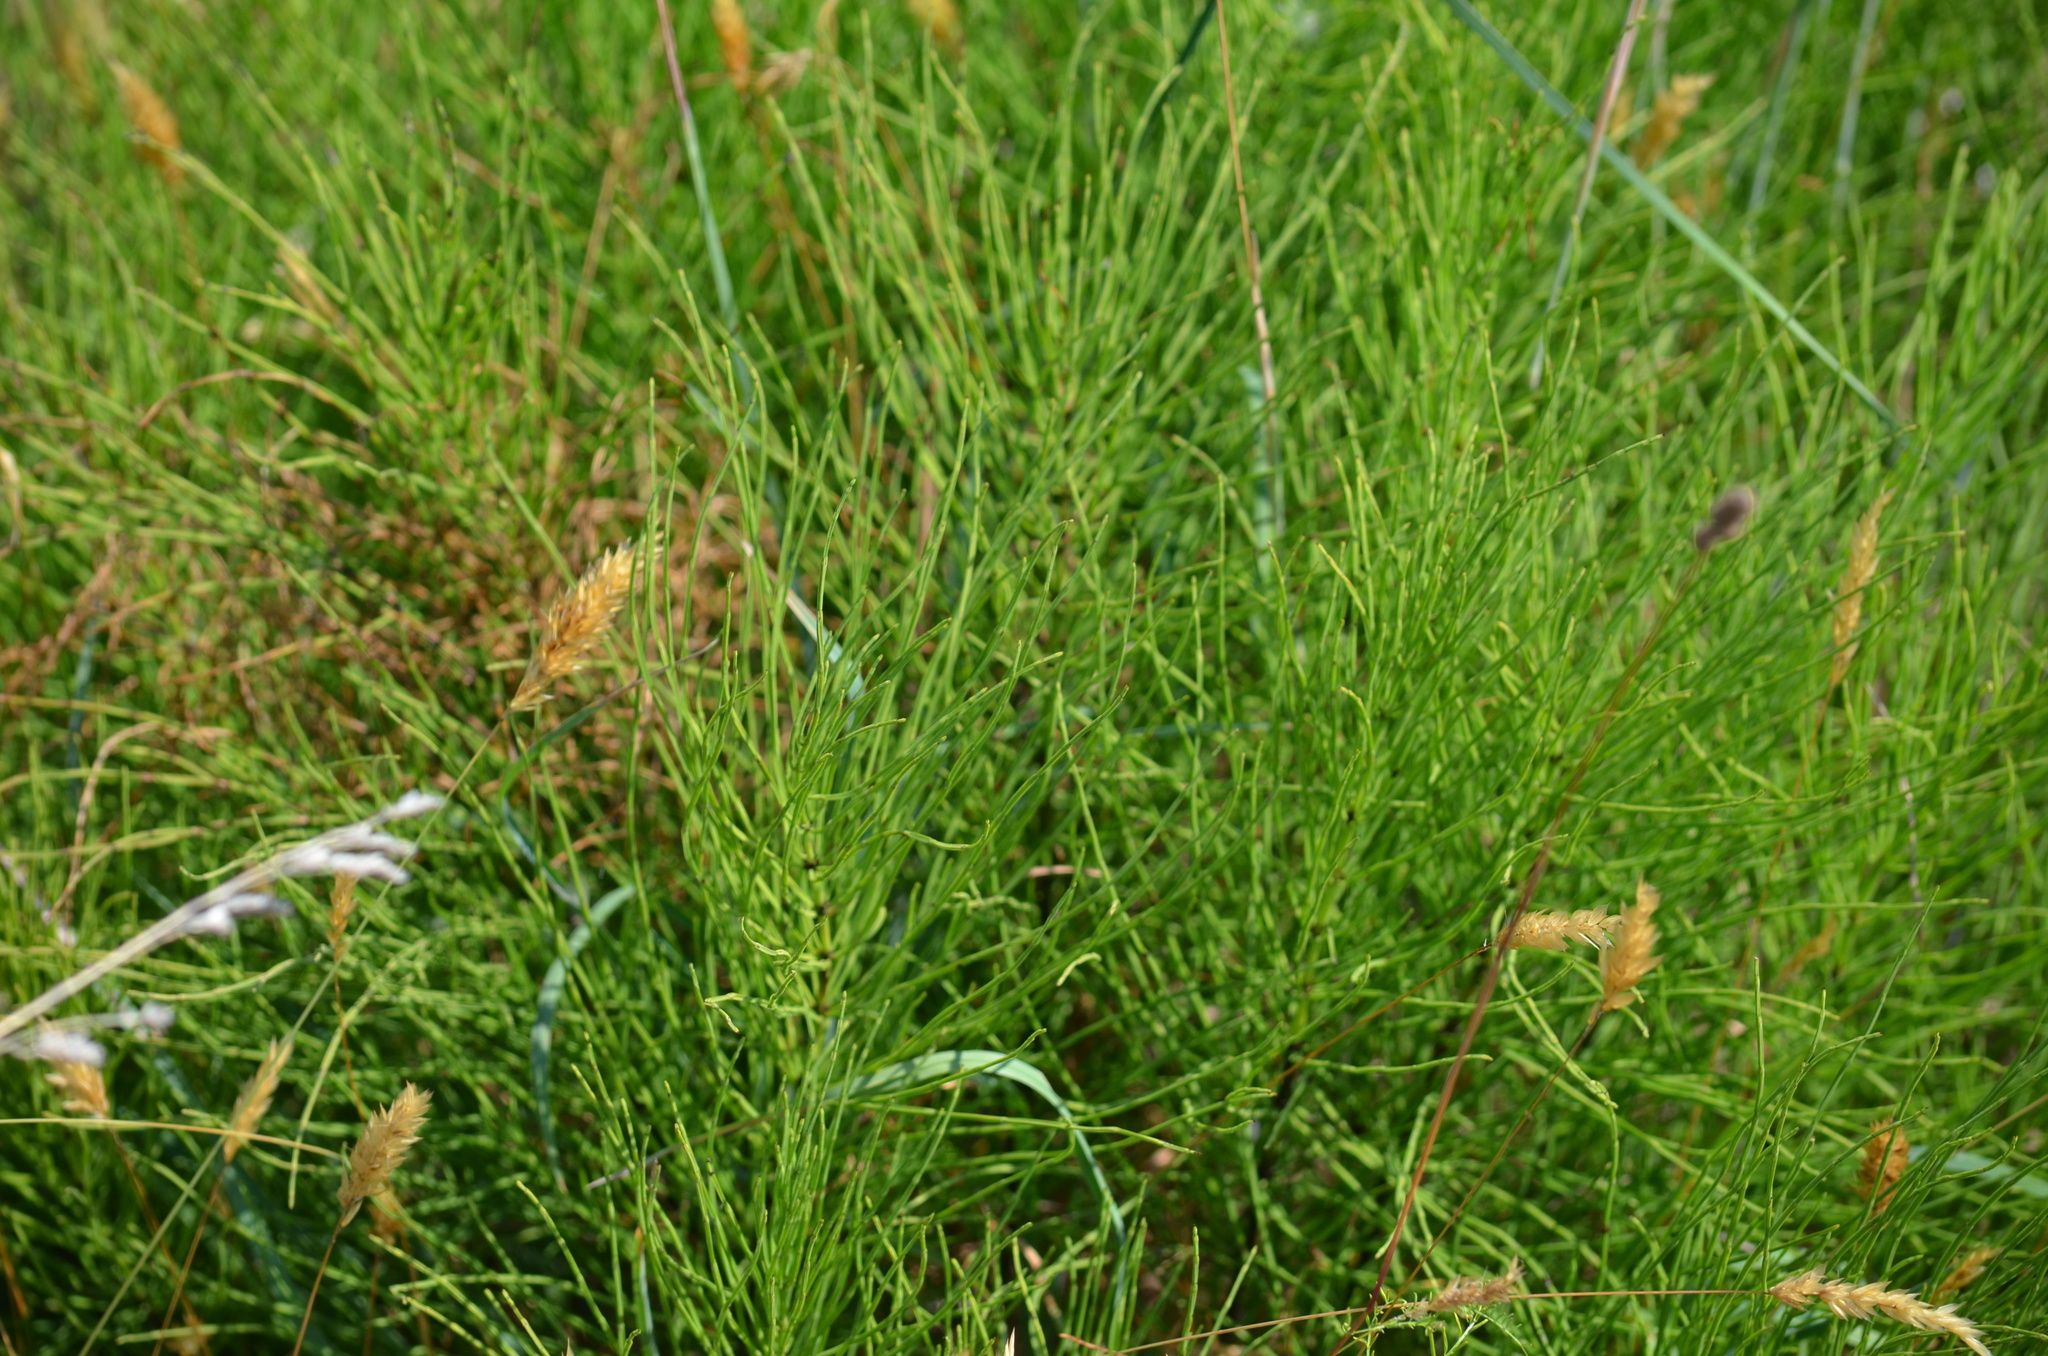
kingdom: Plantae
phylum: Tracheophyta
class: Polypodiopsida
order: Equisetales
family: Equisetaceae
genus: Equisetum
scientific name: Equisetum arvense
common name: Field horsetail
